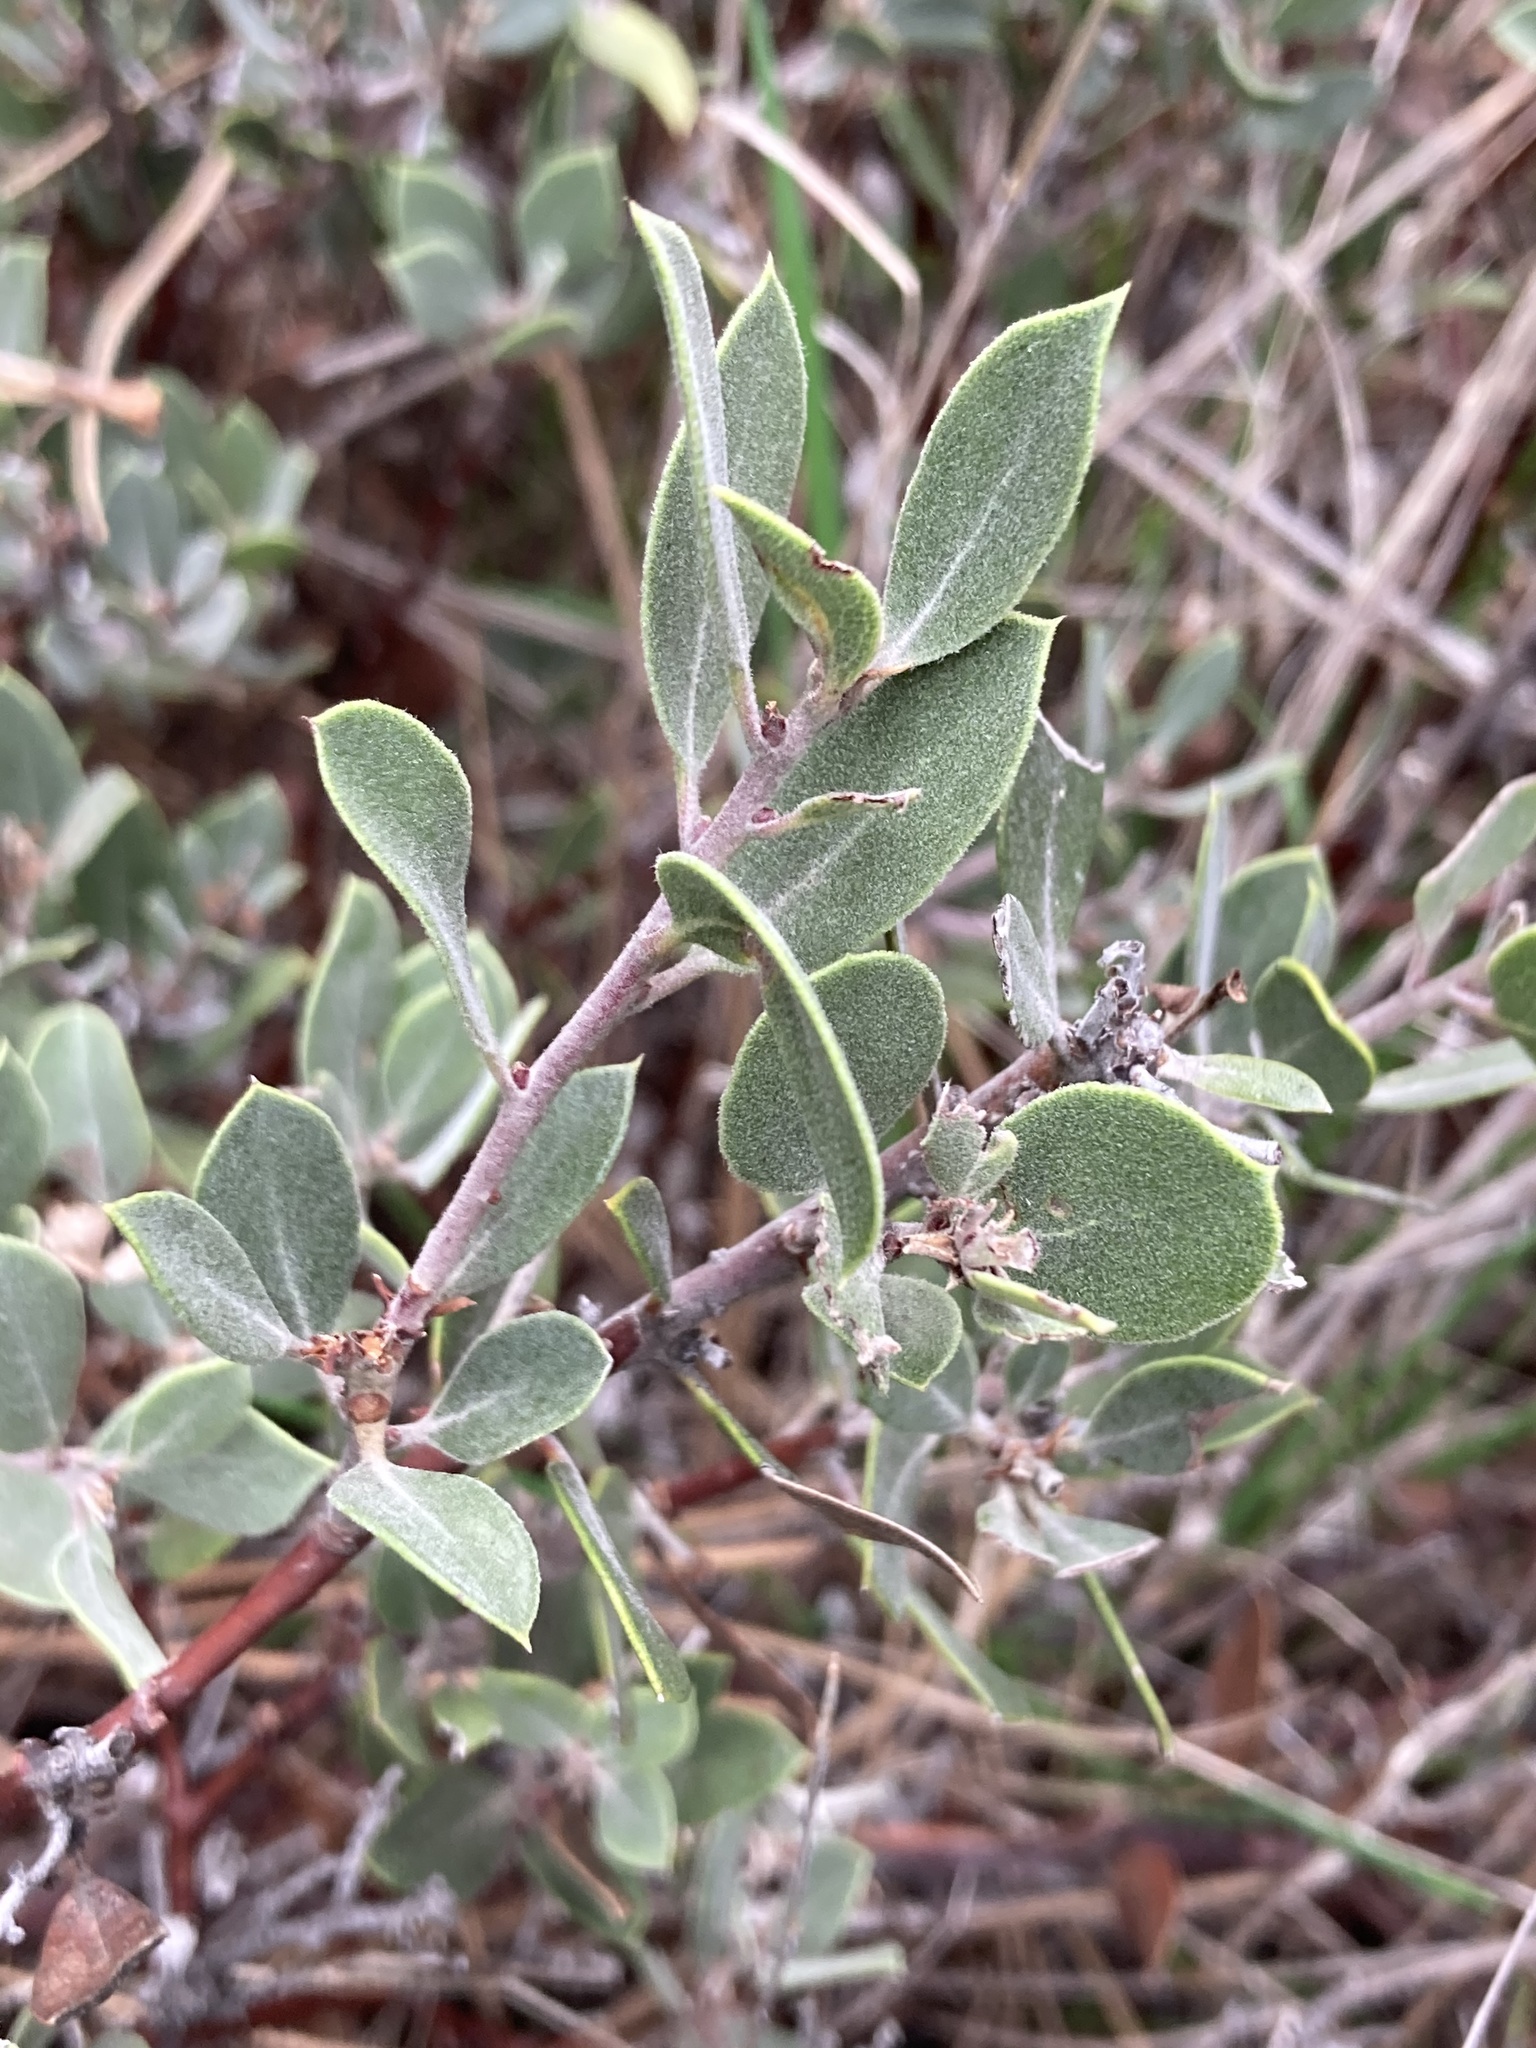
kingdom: Plantae
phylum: Tracheophyta
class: Magnoliopsida
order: Ericales
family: Ericaceae
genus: Arctostaphylos
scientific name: Arctostaphylos montana
